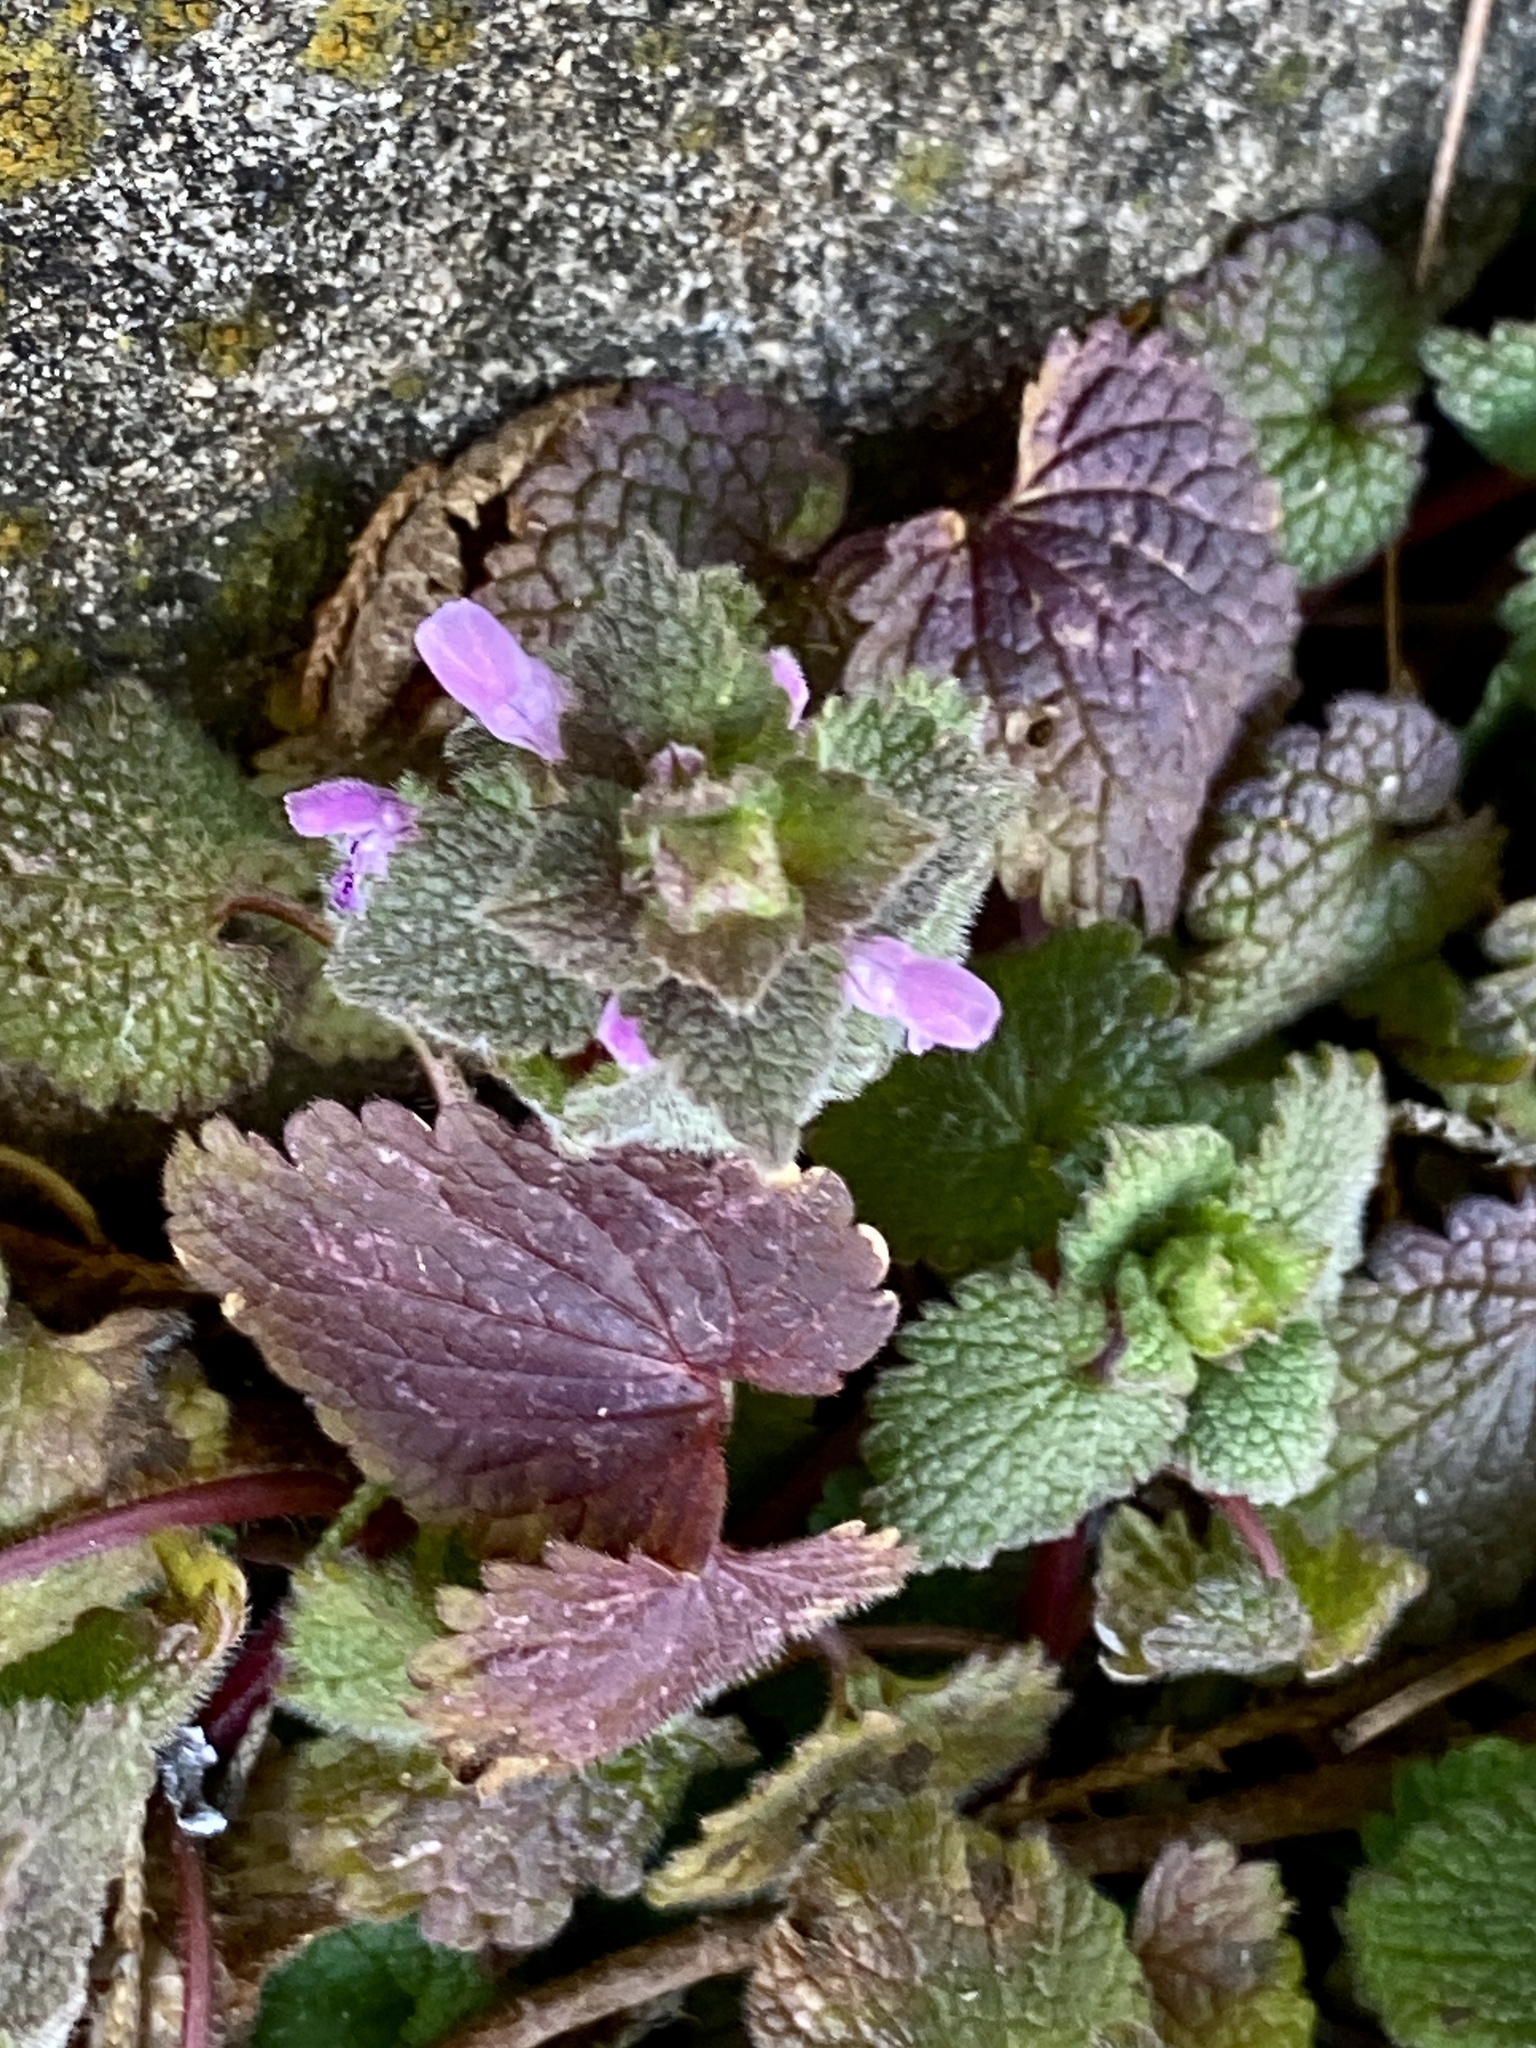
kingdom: Plantae
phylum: Tracheophyta
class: Magnoliopsida
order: Lamiales
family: Lamiaceae
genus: Lamium
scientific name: Lamium purpureum
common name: Red dead-nettle
